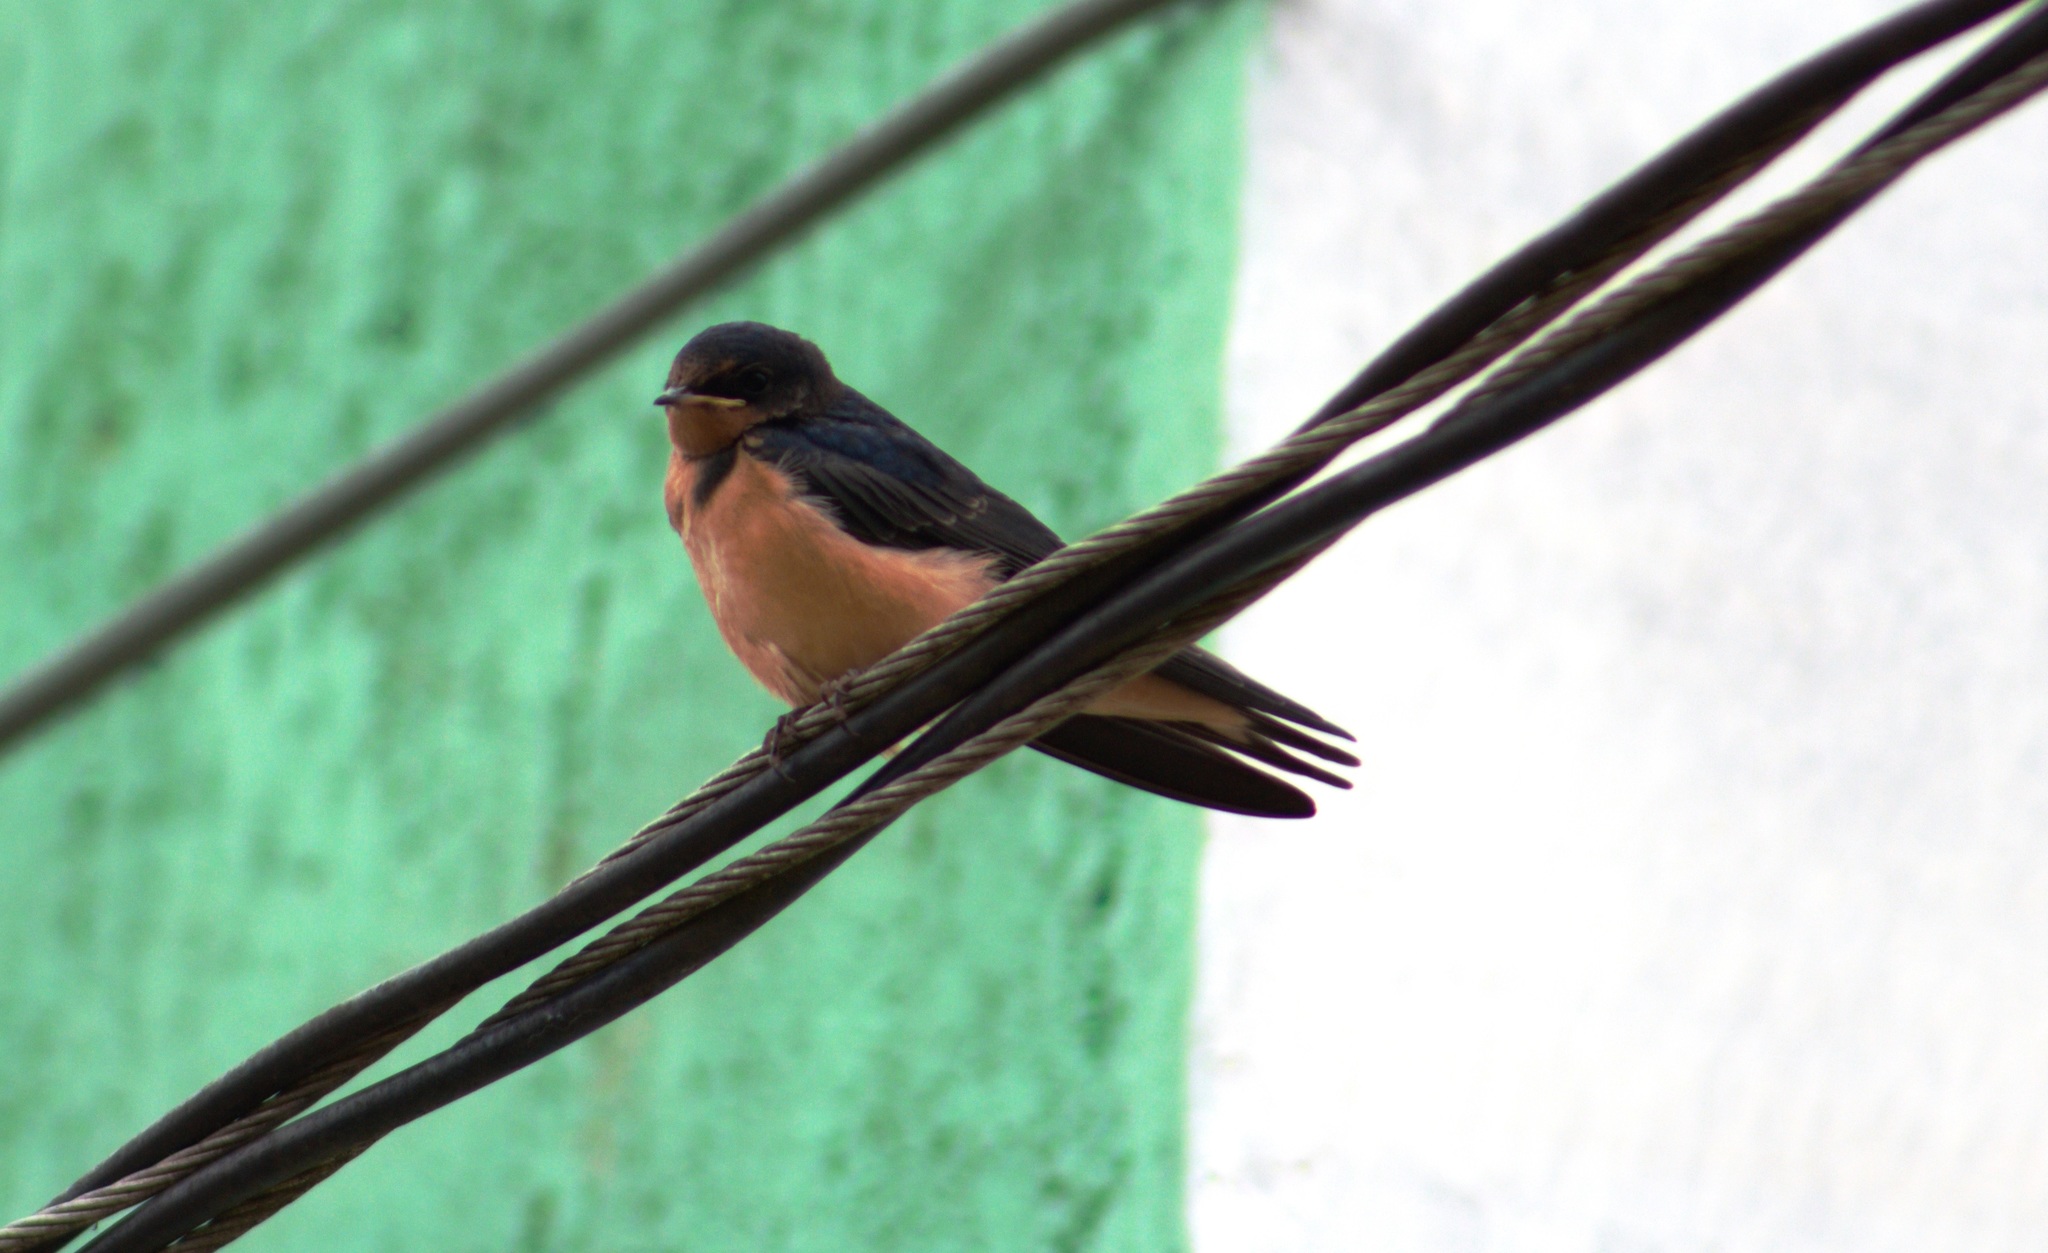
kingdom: Animalia
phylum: Chordata
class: Aves
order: Passeriformes
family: Hirundinidae
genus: Hirundo
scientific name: Hirundo rustica
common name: Barn swallow
